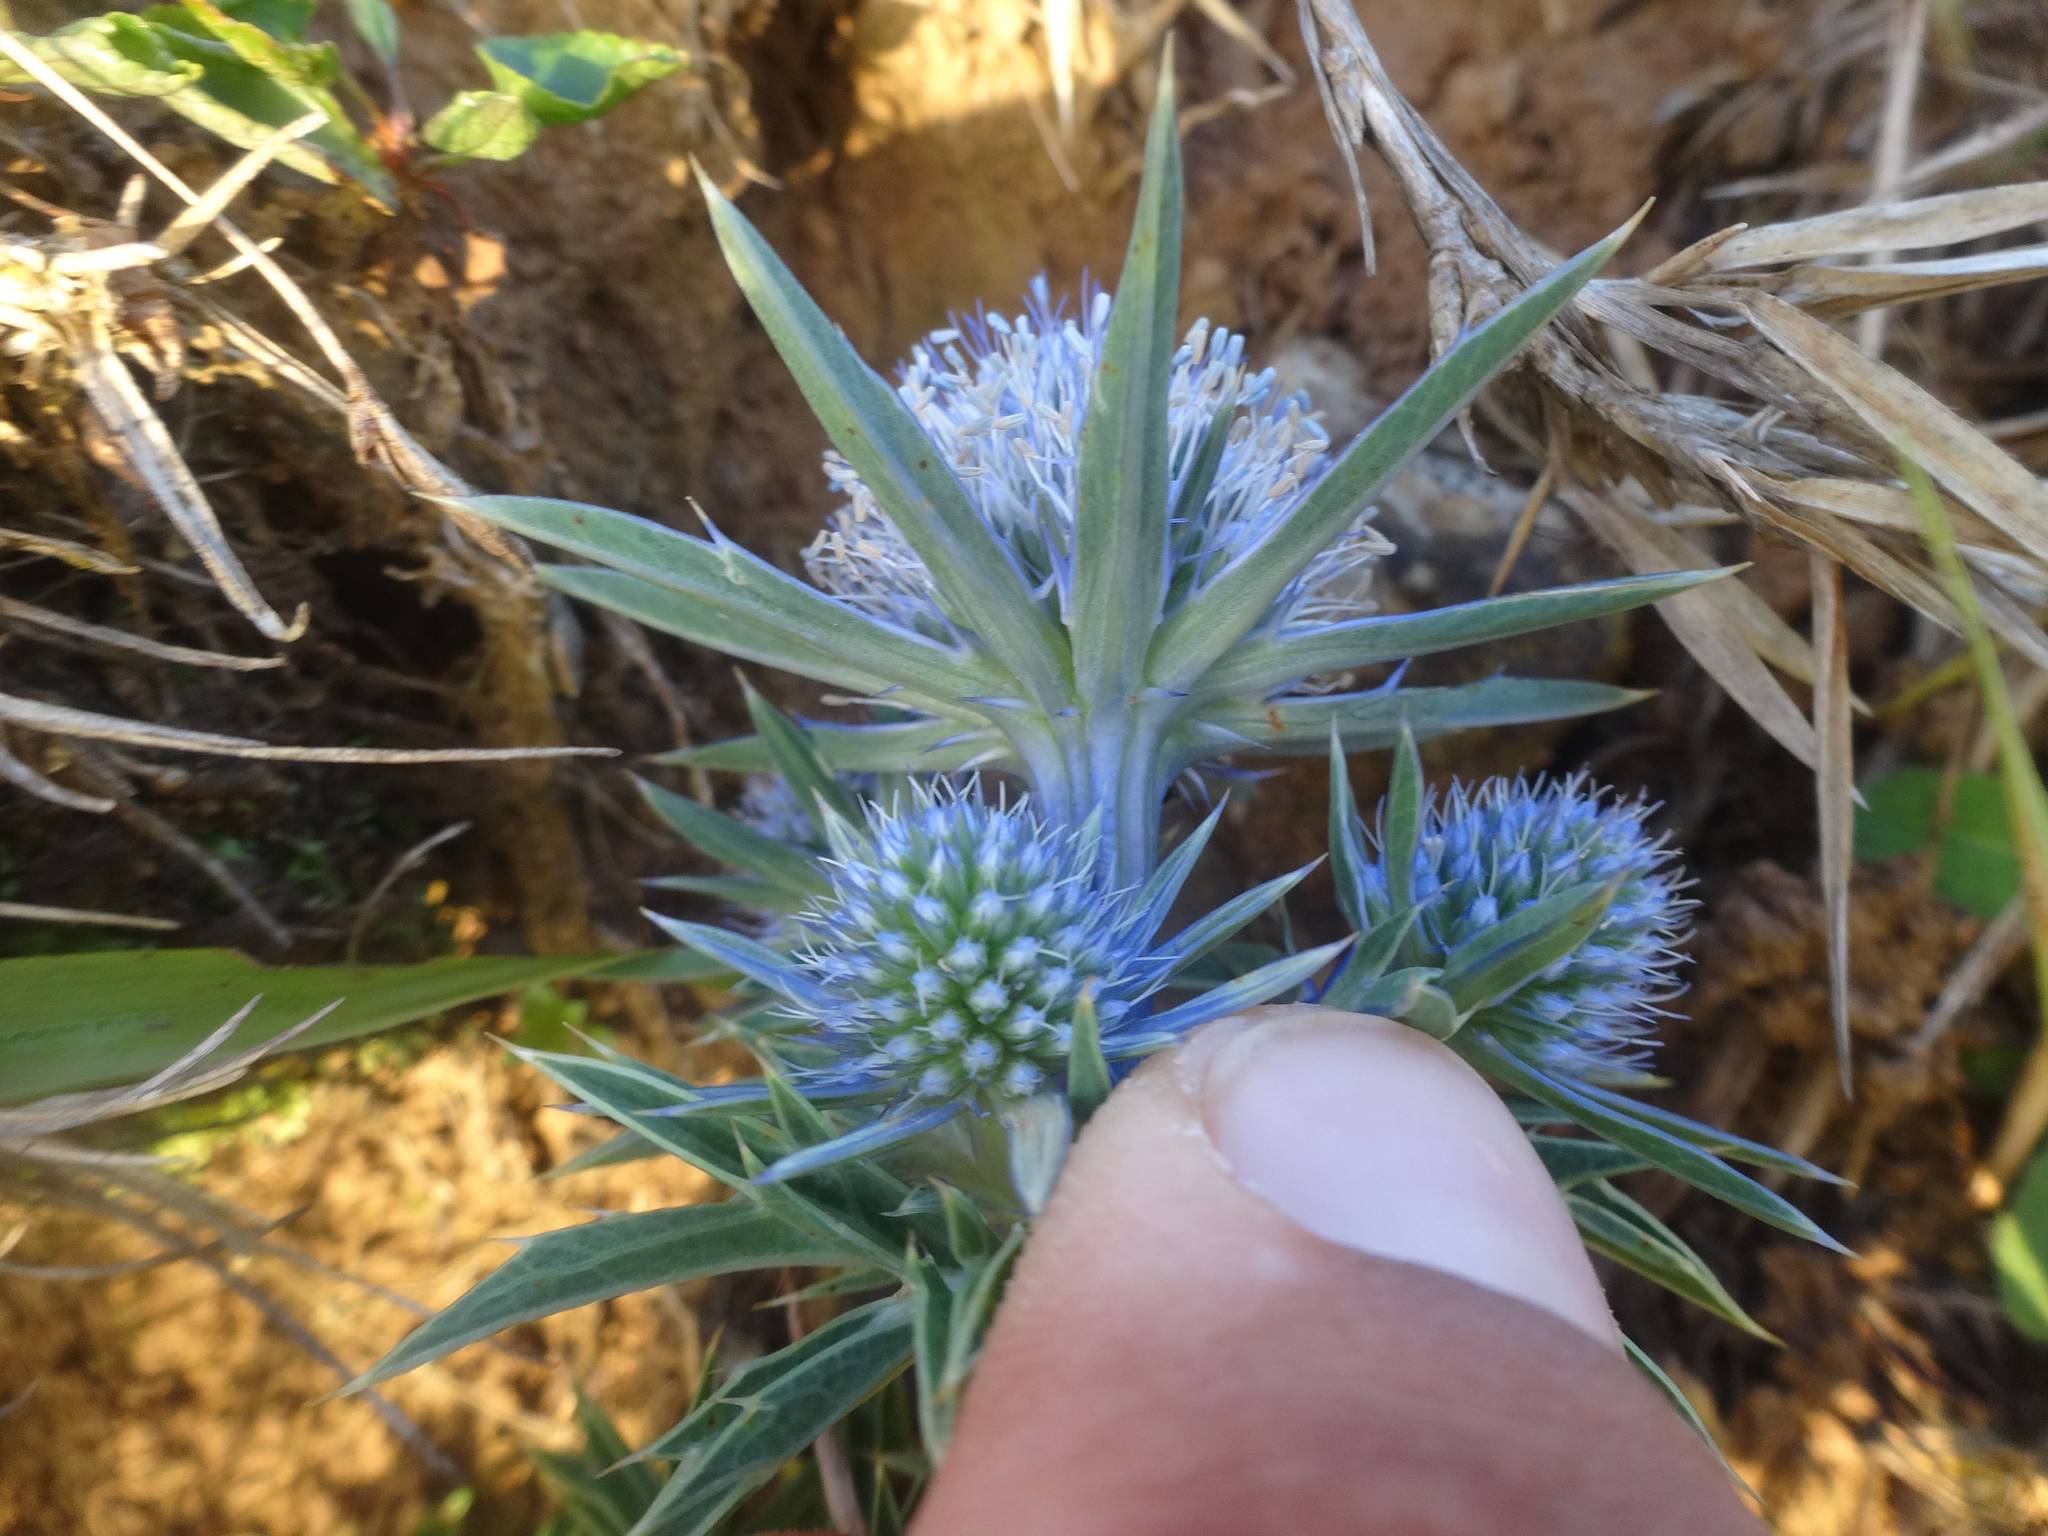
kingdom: Plantae
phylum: Tracheophyta
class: Magnoliopsida
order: Apiales
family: Apiaceae
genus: Eryngium
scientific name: Eryngium bourgatii
